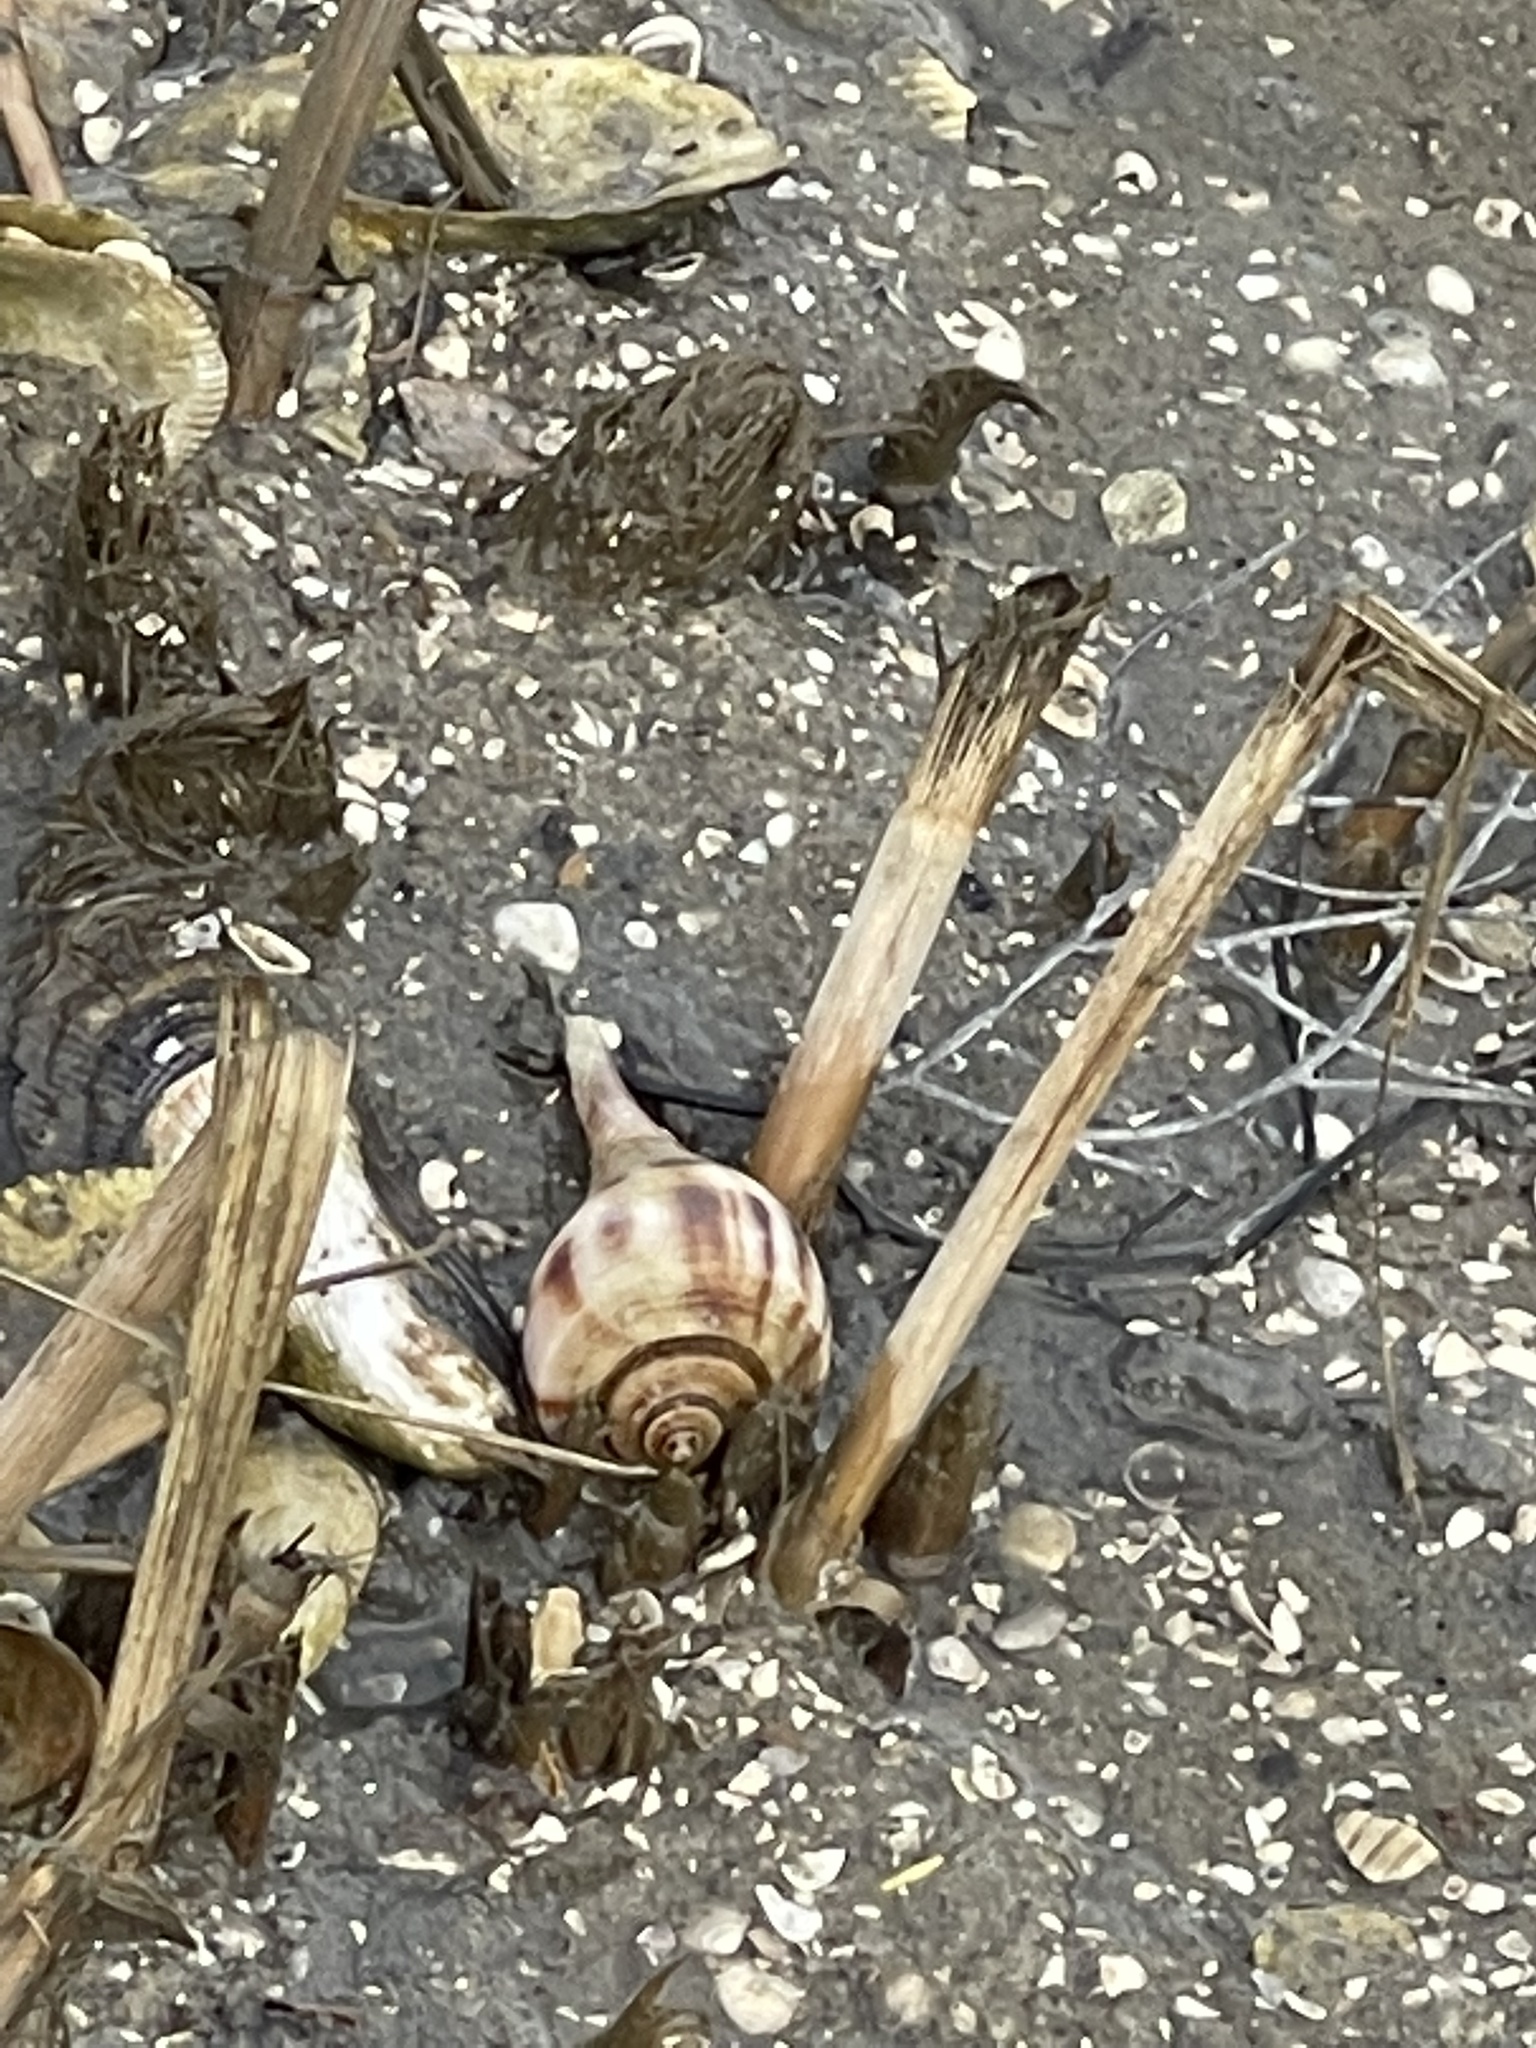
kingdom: Animalia
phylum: Mollusca
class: Gastropoda
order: Neogastropoda
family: Busyconidae
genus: Fulguropsis
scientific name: Fulguropsis pyruloides
